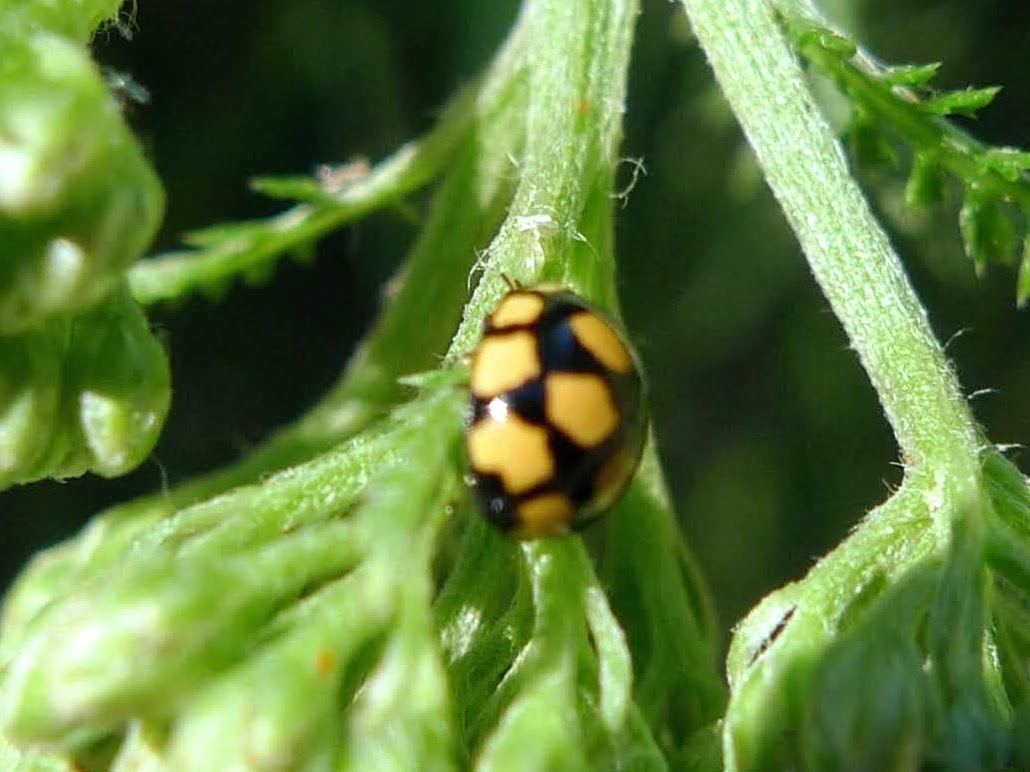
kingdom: Animalia
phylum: Arthropoda
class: Insecta
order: Coleoptera
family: Coccinellidae
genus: Coccinula
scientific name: Coccinula quatuordecimpustulata
